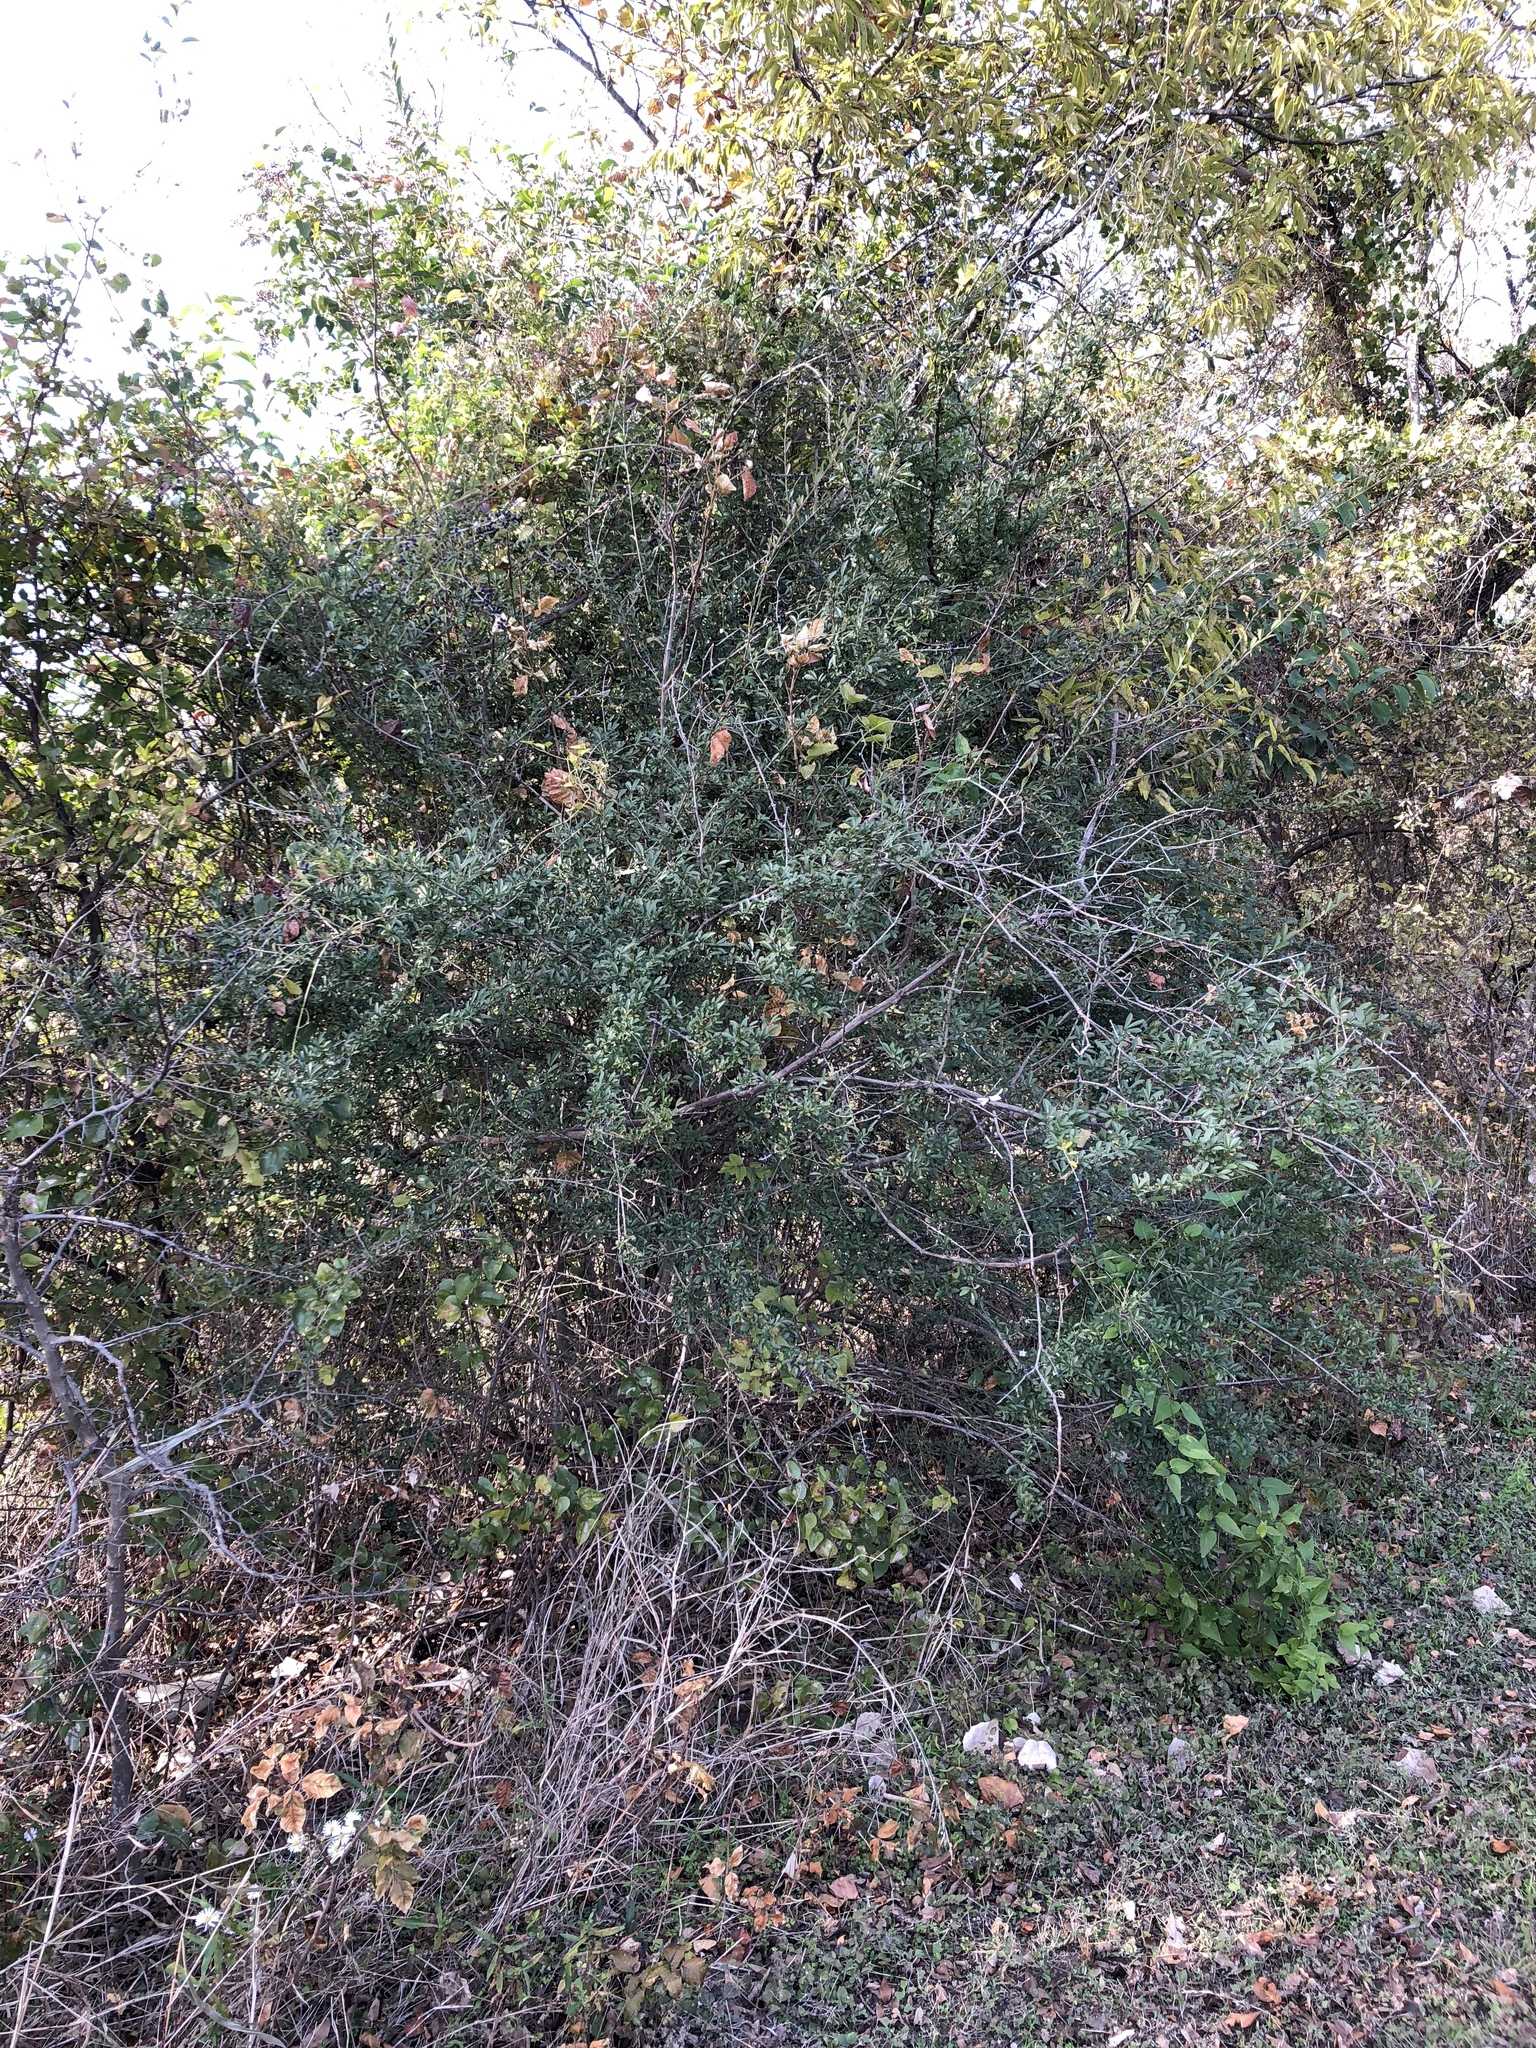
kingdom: Plantae
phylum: Tracheophyta
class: Magnoliopsida
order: Lamiales
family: Oleaceae
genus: Ligustrum
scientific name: Ligustrum quihoui
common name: Waxyleaf privet
